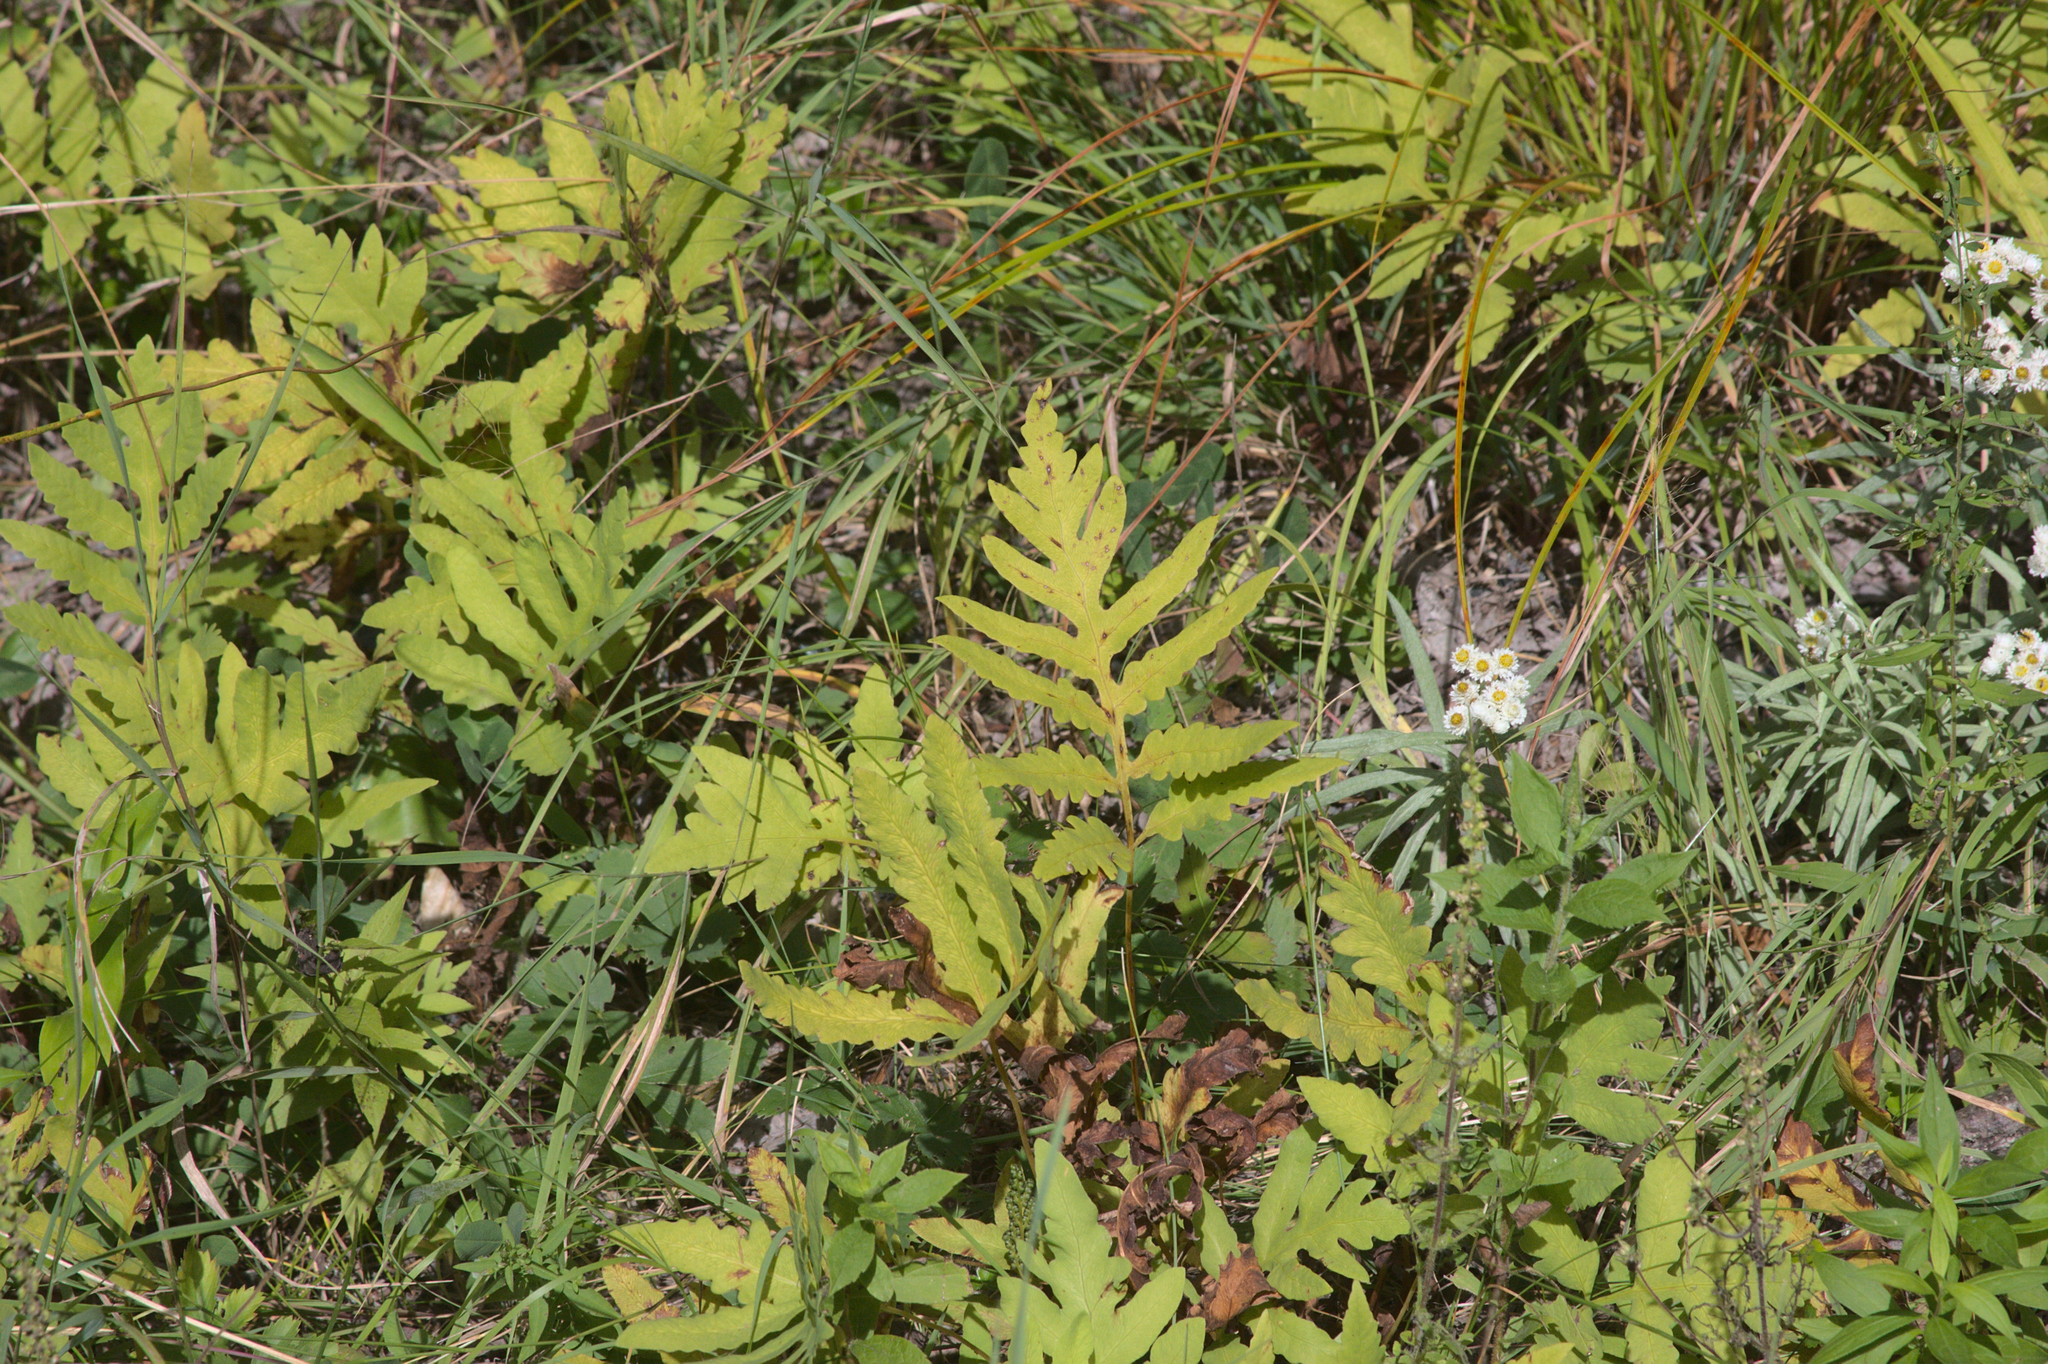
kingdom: Plantae
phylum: Tracheophyta
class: Polypodiopsida
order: Polypodiales
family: Onocleaceae
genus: Onoclea
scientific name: Onoclea sensibilis
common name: Sensitive fern
